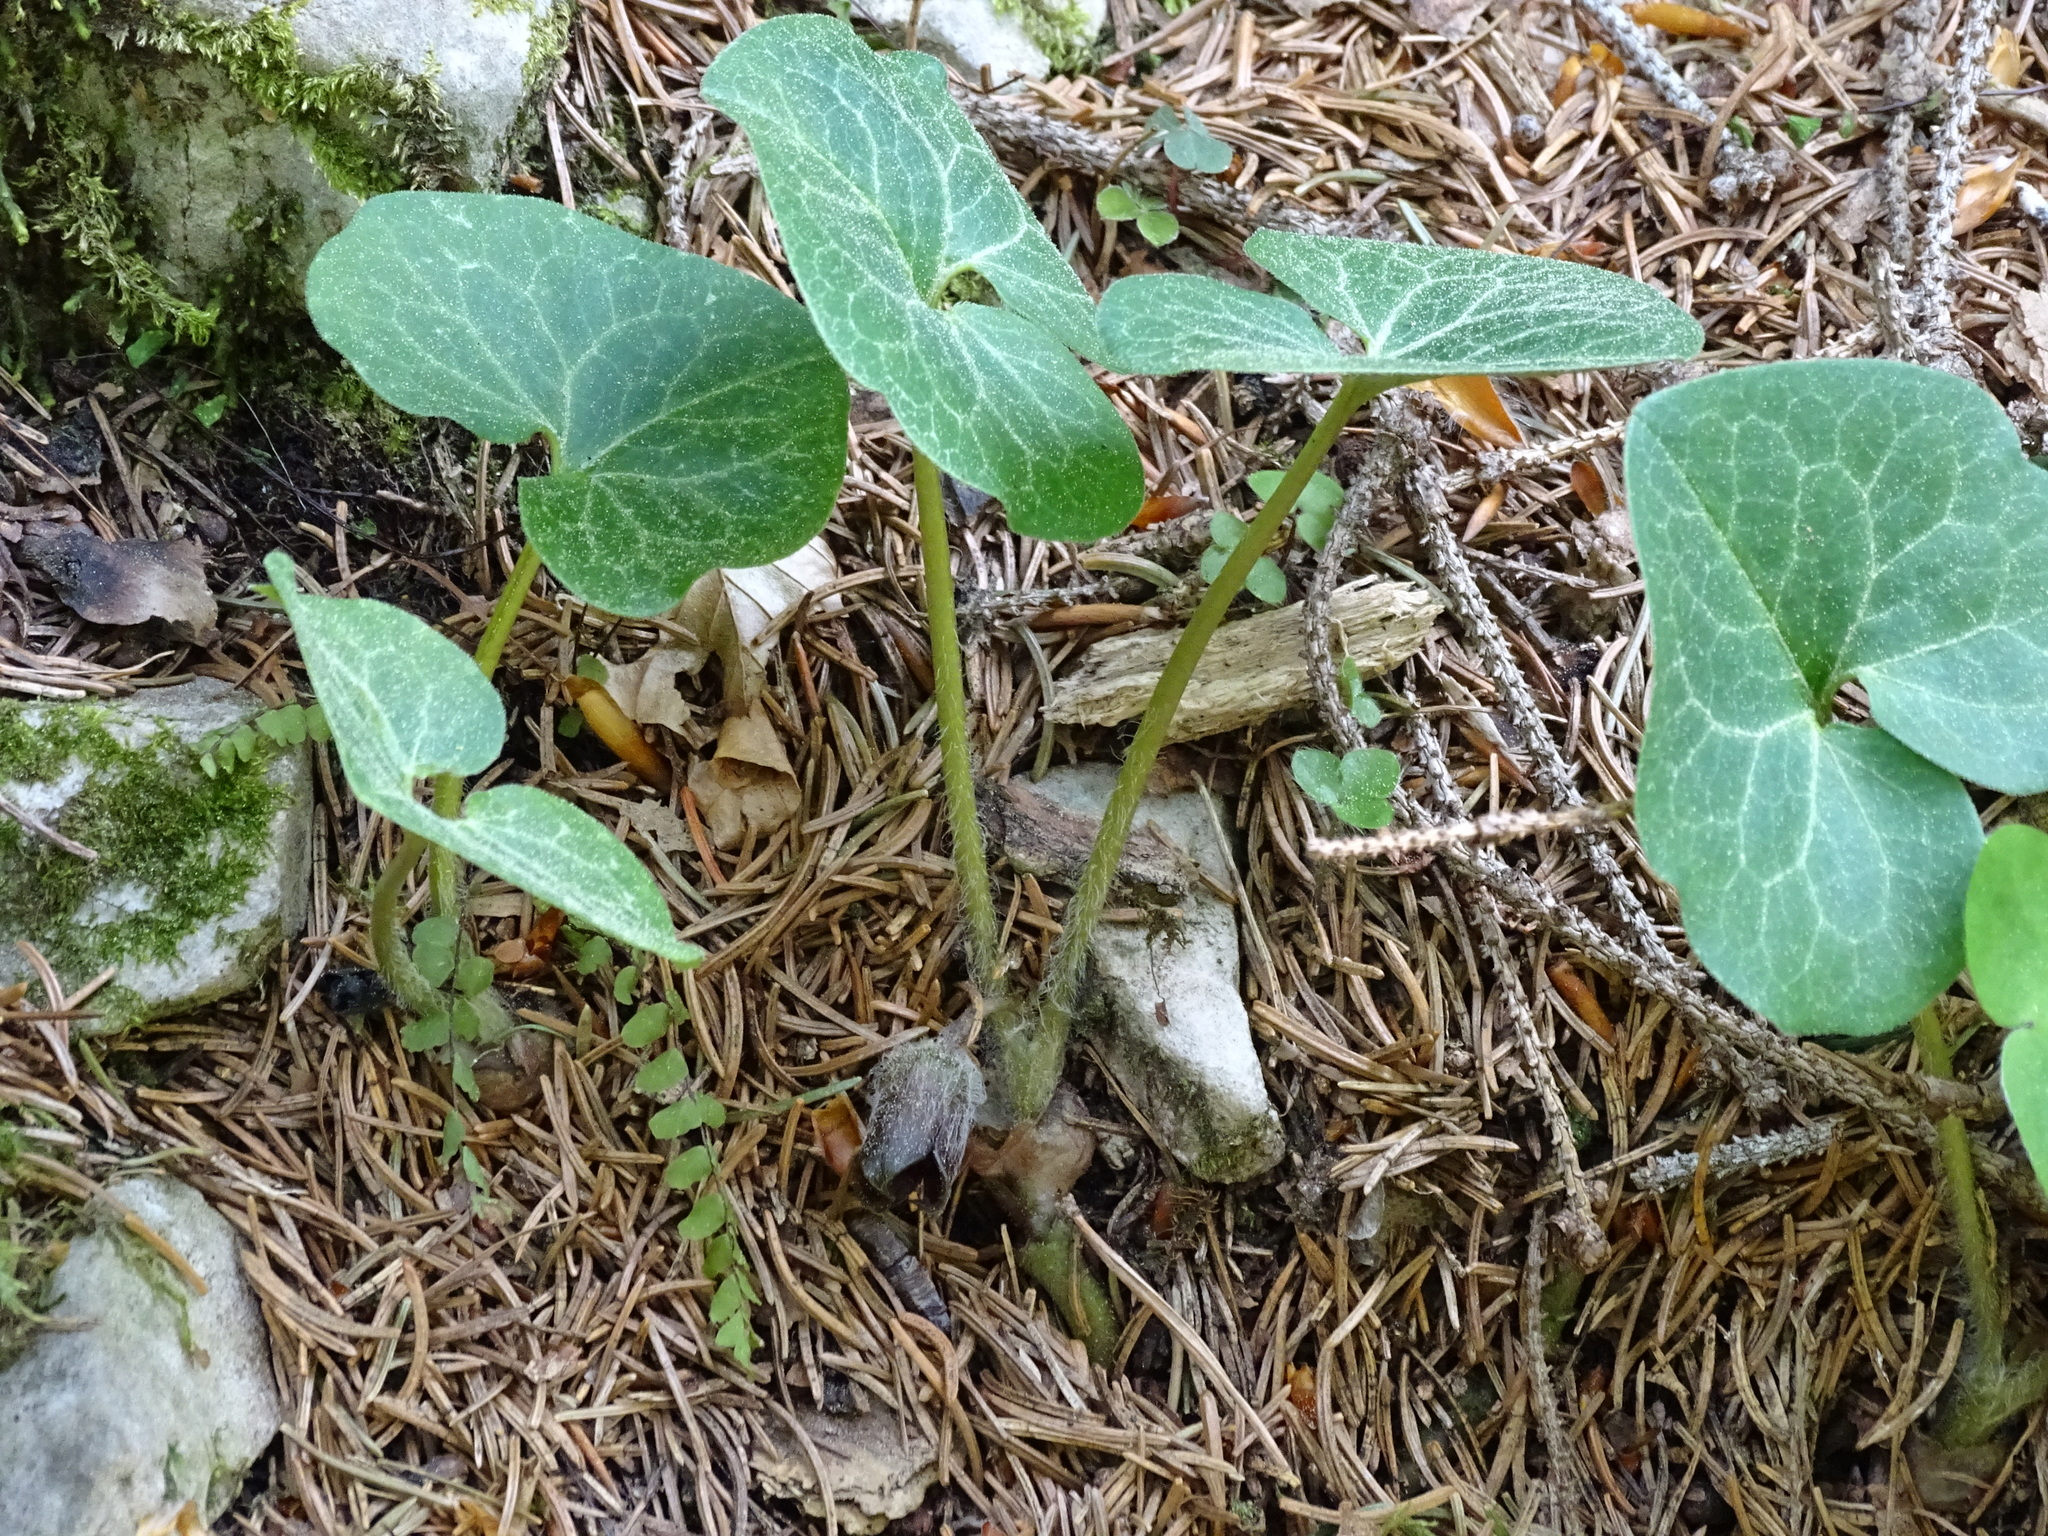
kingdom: Plantae
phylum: Tracheophyta
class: Magnoliopsida
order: Piperales
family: Aristolochiaceae
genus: Asarum
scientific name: Asarum europaeum
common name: Asarabacca
